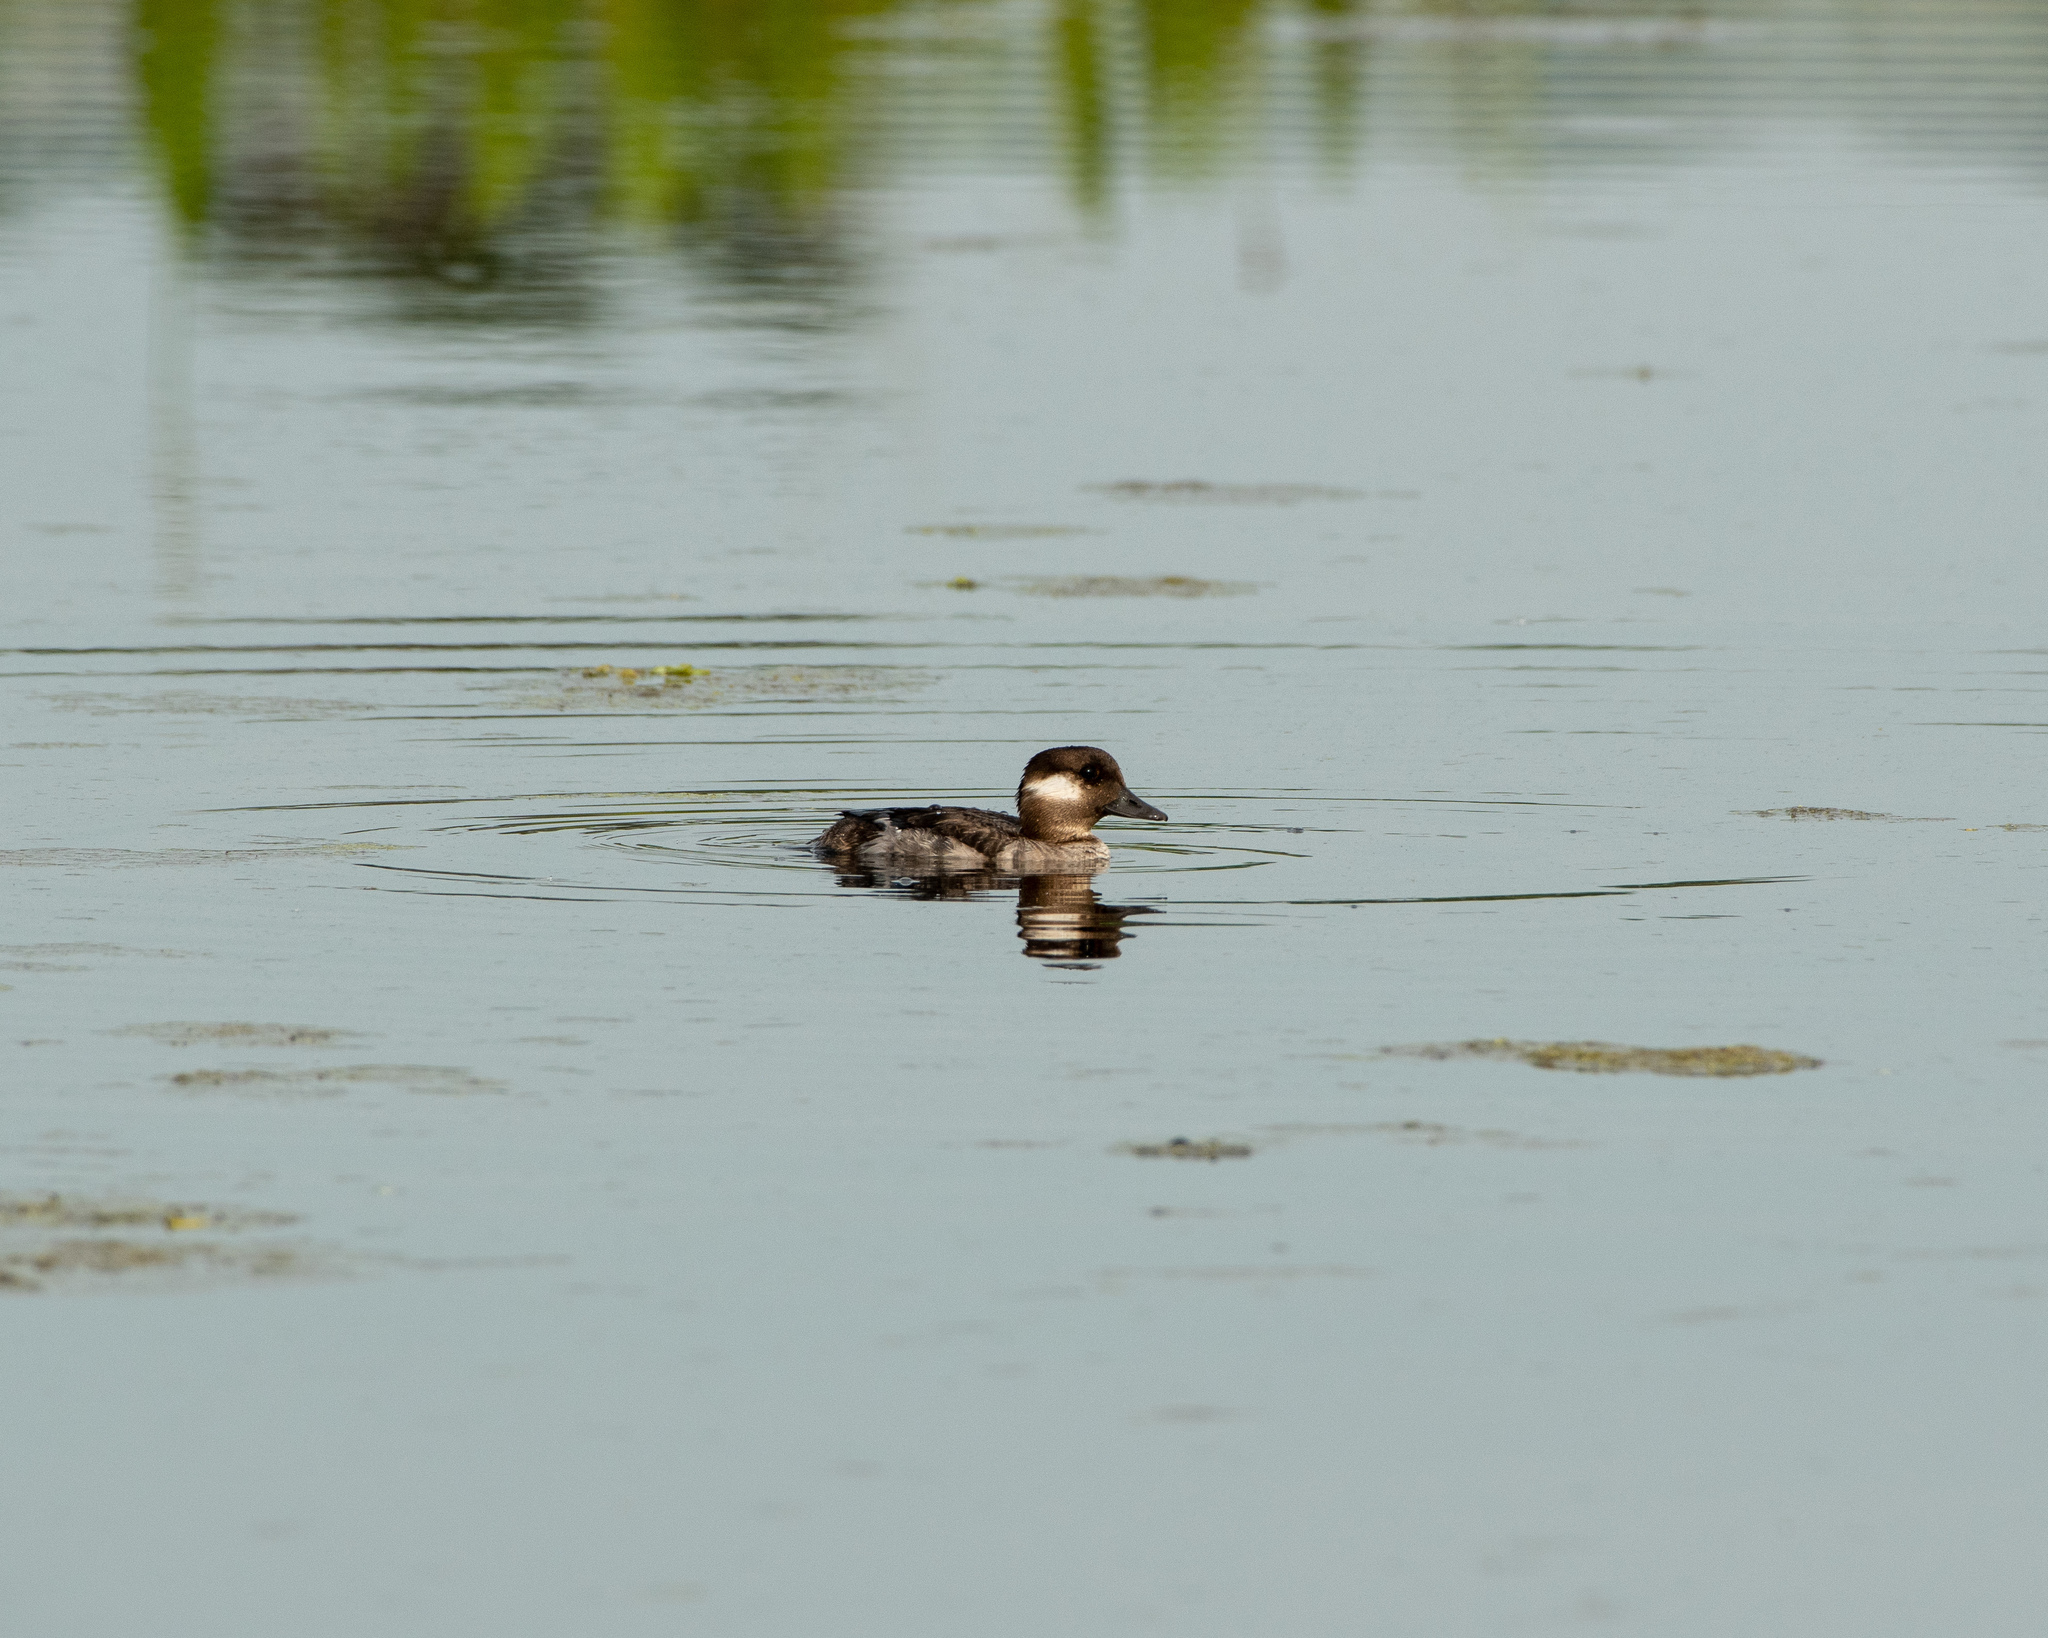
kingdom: Animalia
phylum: Chordata
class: Aves
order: Anseriformes
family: Anatidae
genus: Bucephala
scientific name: Bucephala albeola
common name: Bufflehead
